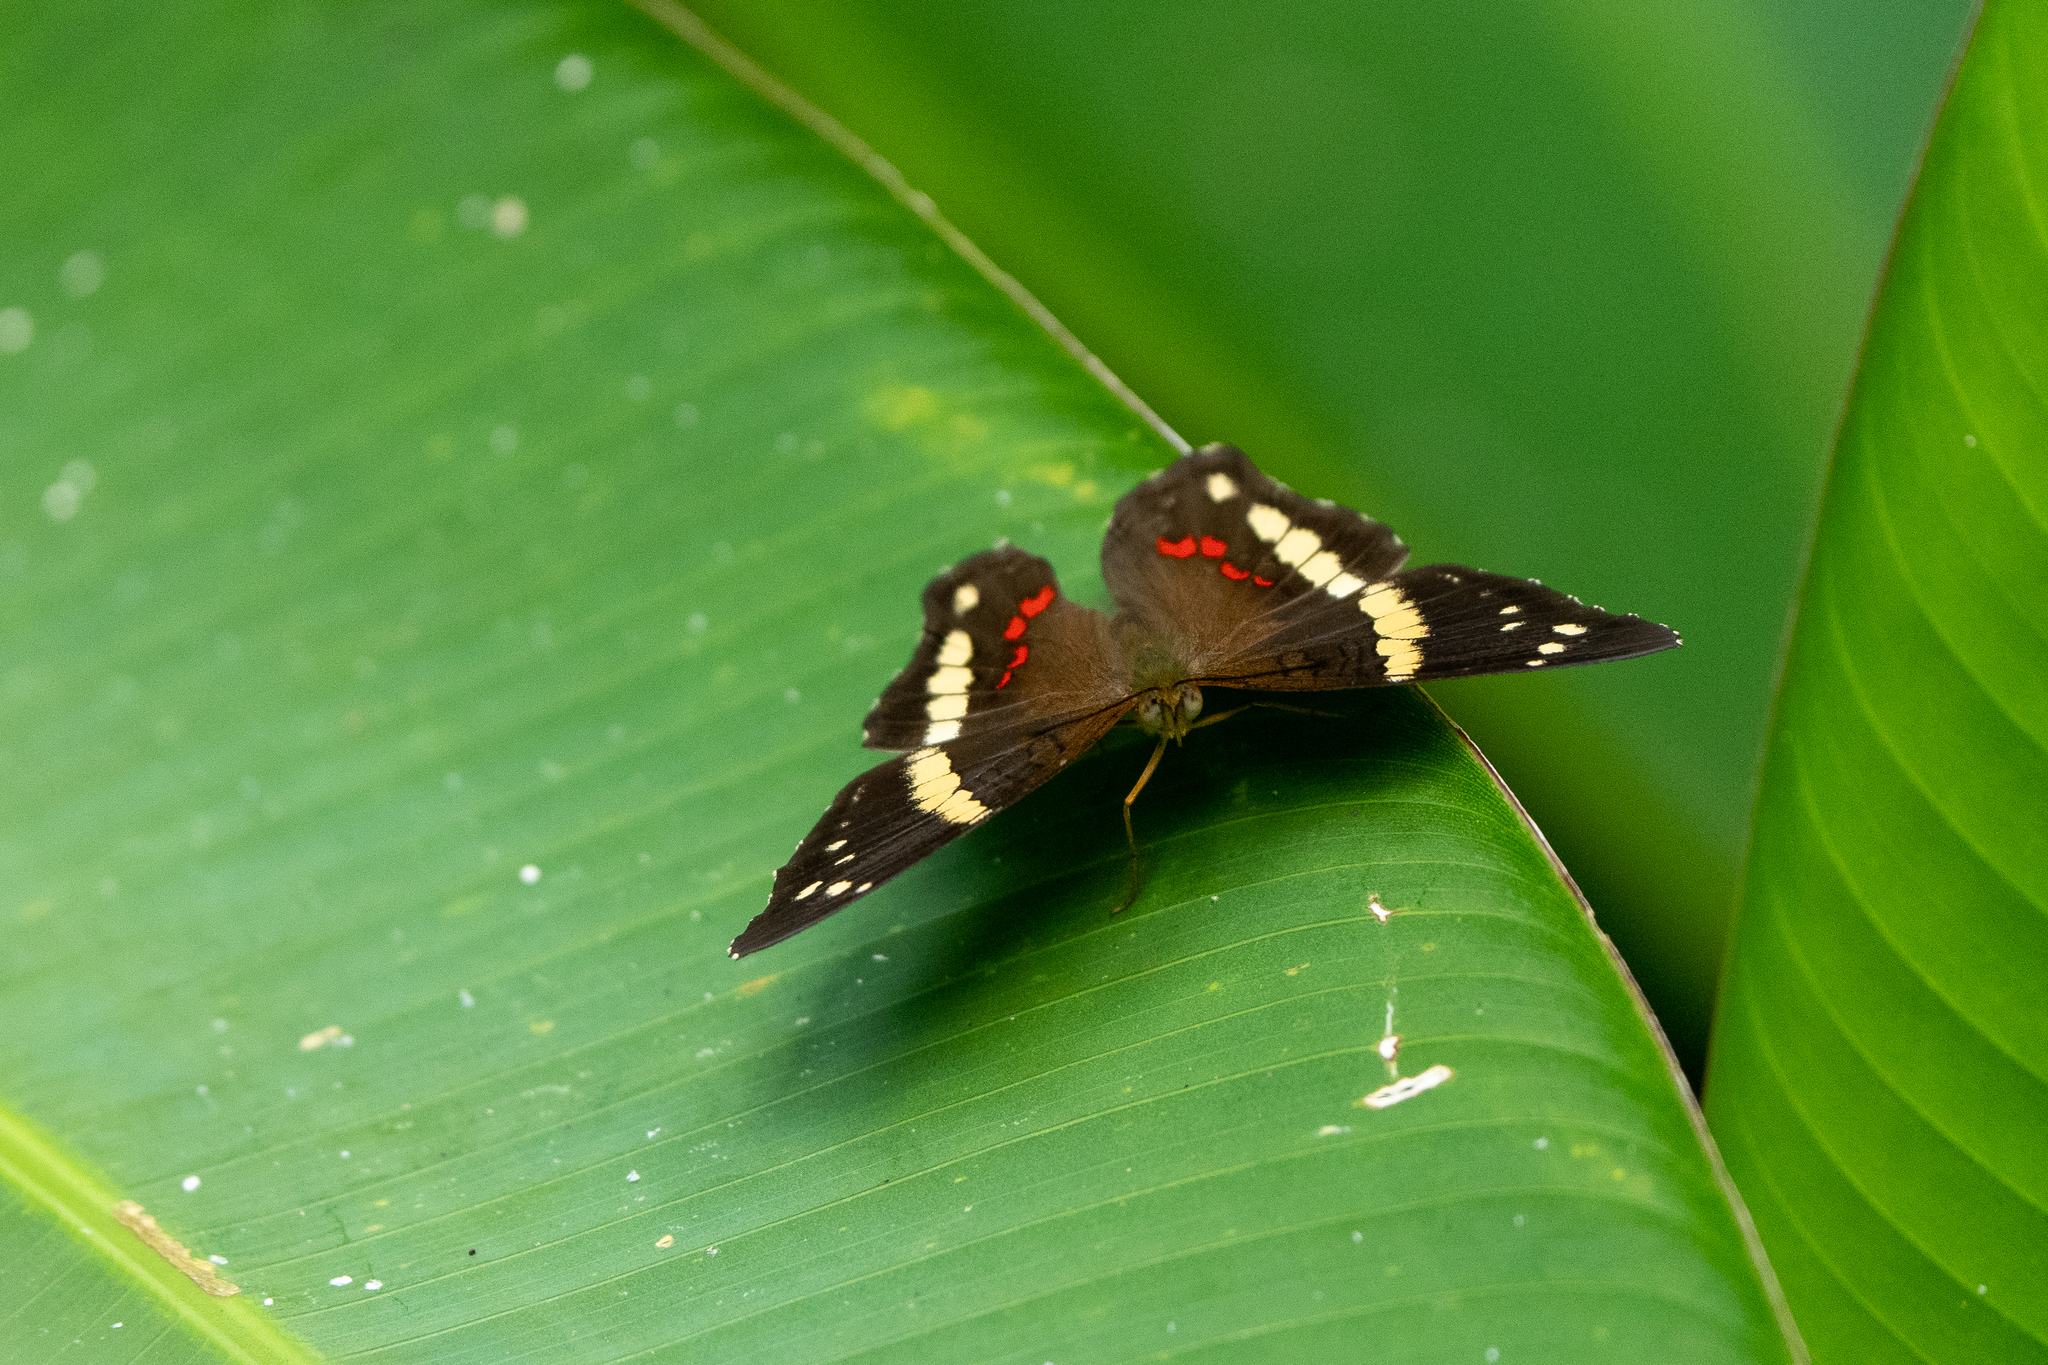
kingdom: Animalia
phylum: Arthropoda
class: Insecta
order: Lepidoptera
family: Nymphalidae
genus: Anartia
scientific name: Anartia fatima
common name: Banded peacock
